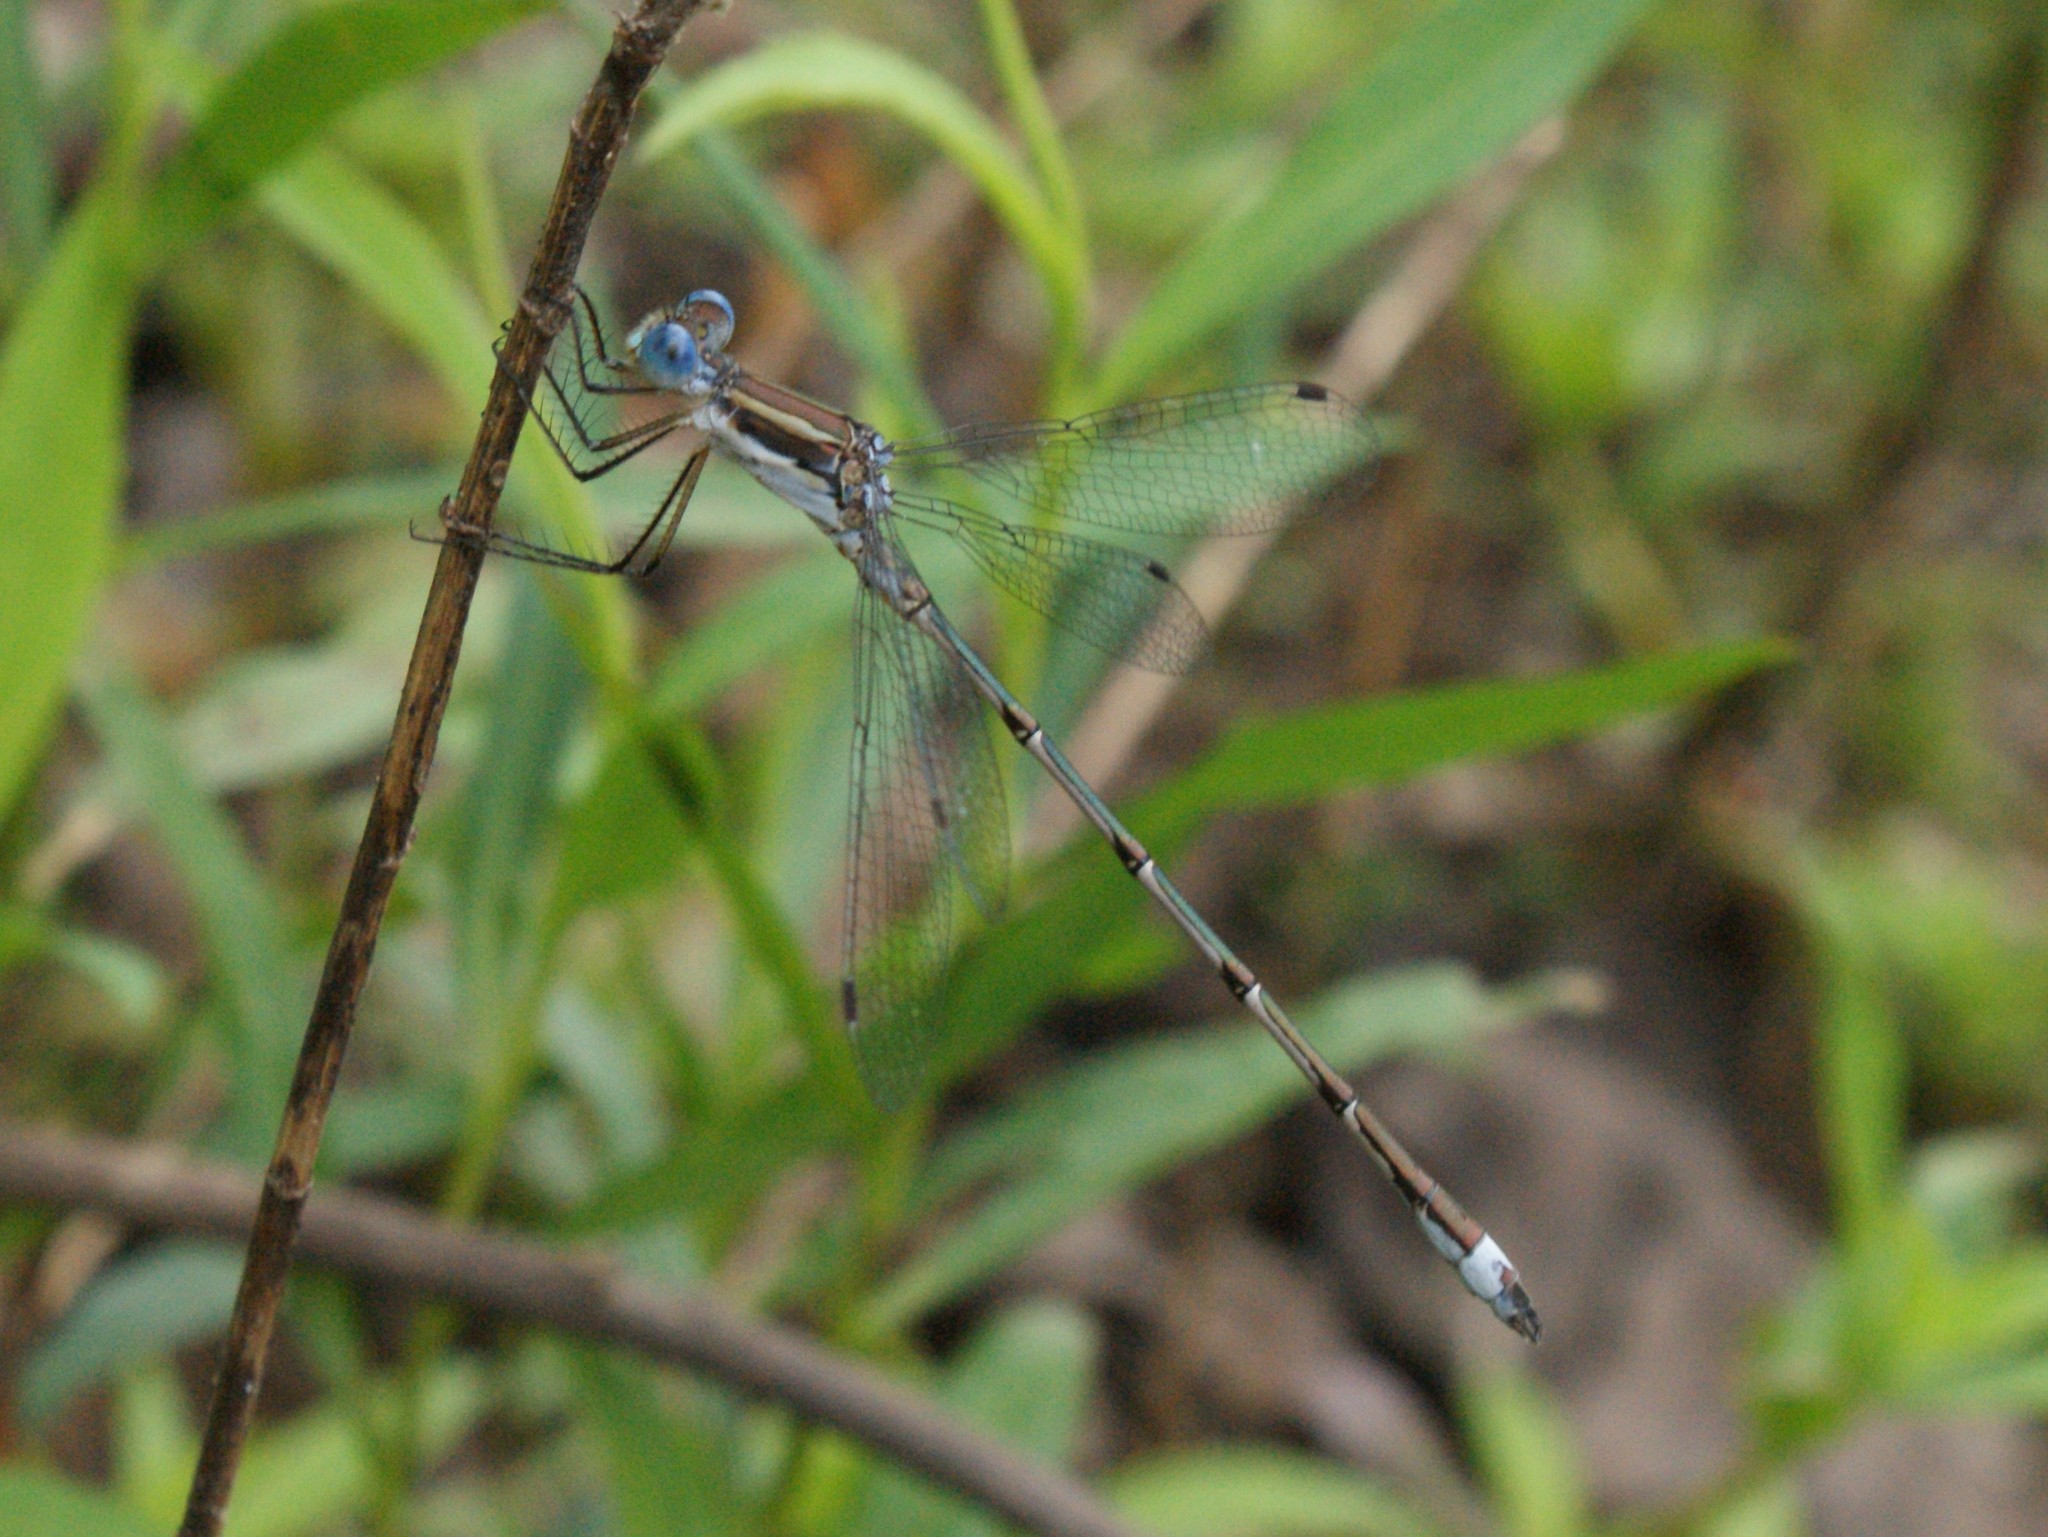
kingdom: Animalia
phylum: Arthropoda
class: Insecta
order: Odonata
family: Lestidae
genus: Lestes
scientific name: Lestes australis
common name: Southern spreadwing
